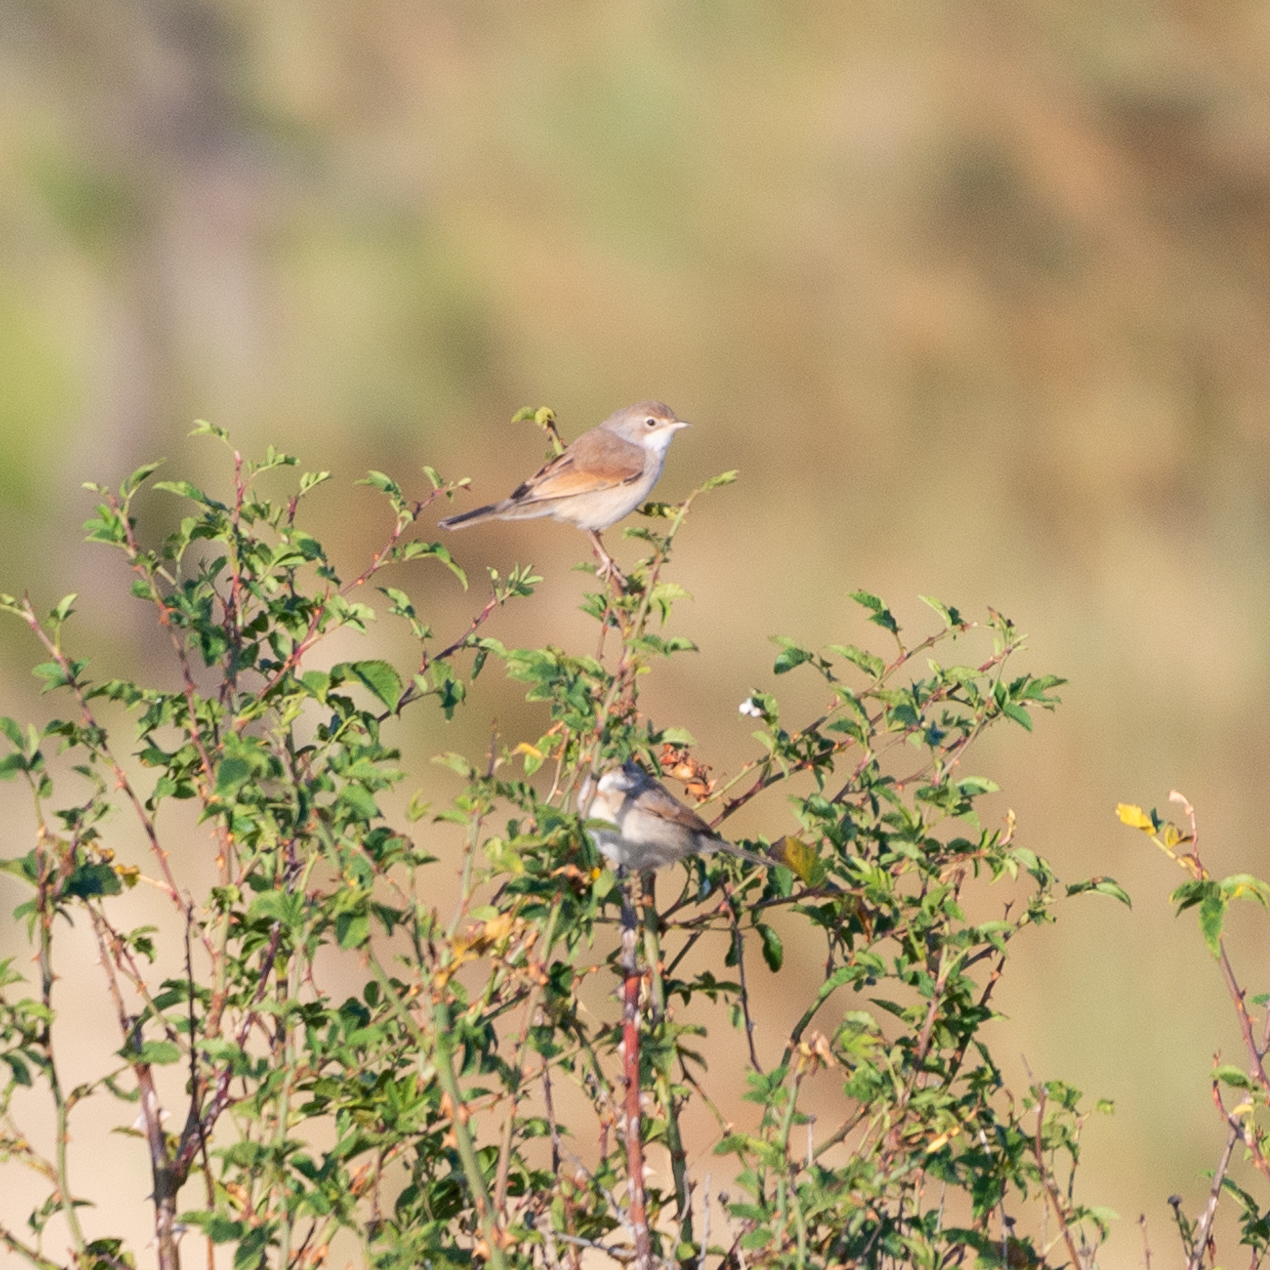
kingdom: Animalia
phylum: Chordata
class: Aves
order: Passeriformes
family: Sylviidae
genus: Sylvia
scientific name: Sylvia communis
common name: Common whitethroat
